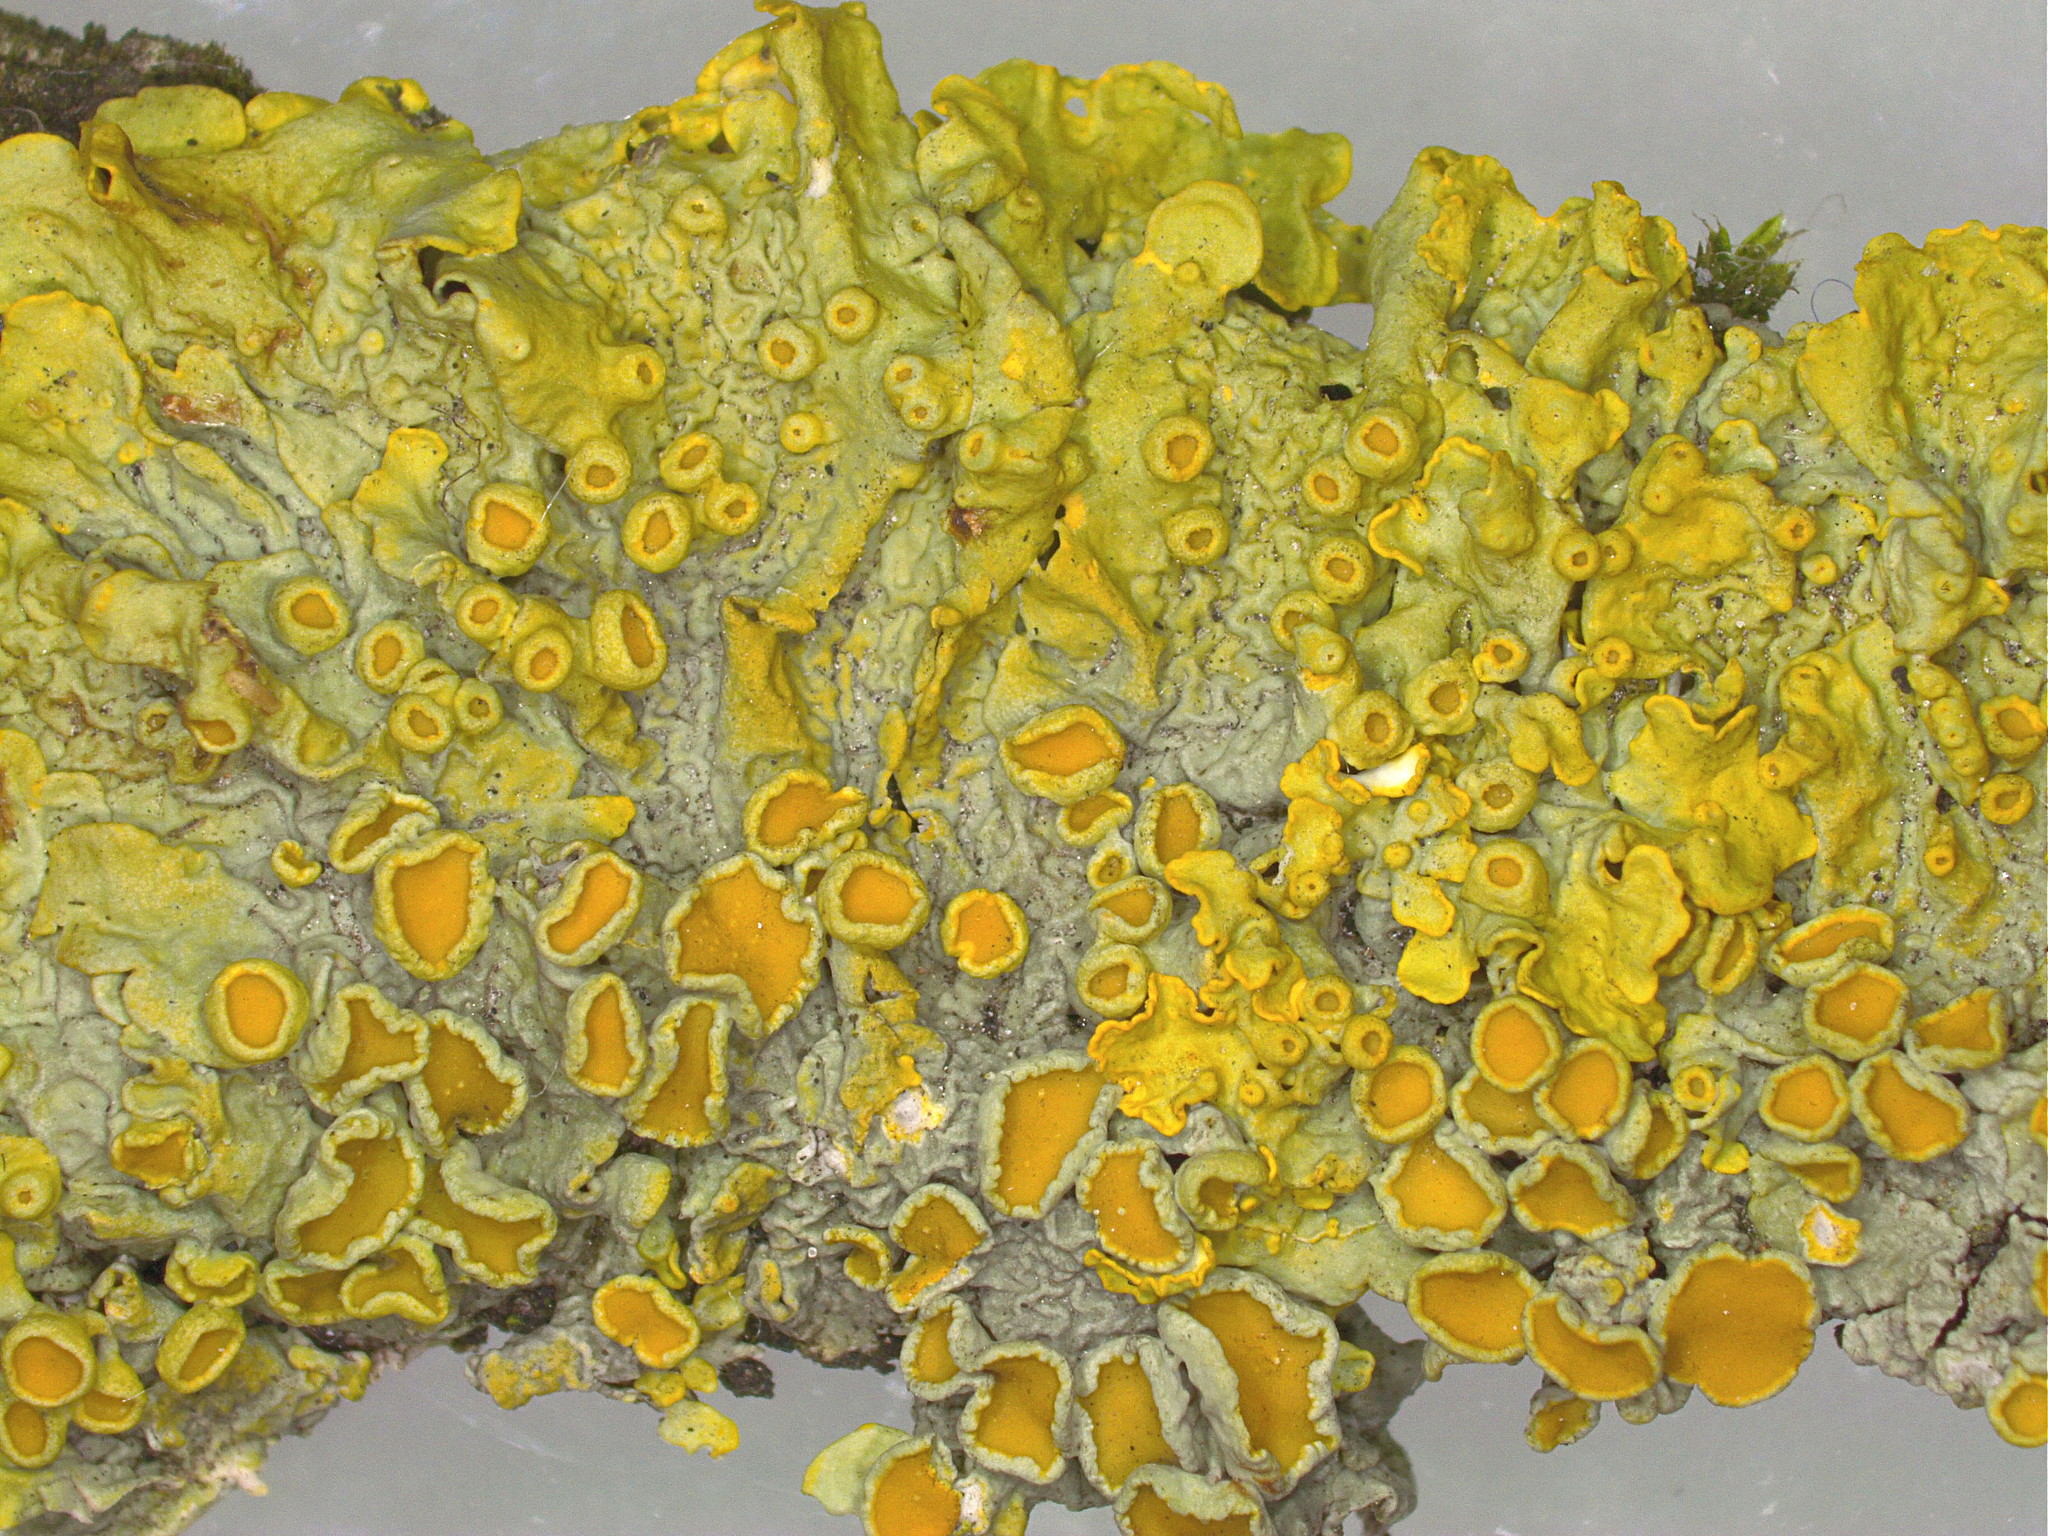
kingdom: Fungi
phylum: Ascomycota
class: Lecanoromycetes
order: Teloschistales
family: Teloschistaceae
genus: Xanthoria
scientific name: Xanthoria parietina
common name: Common orange lichen
